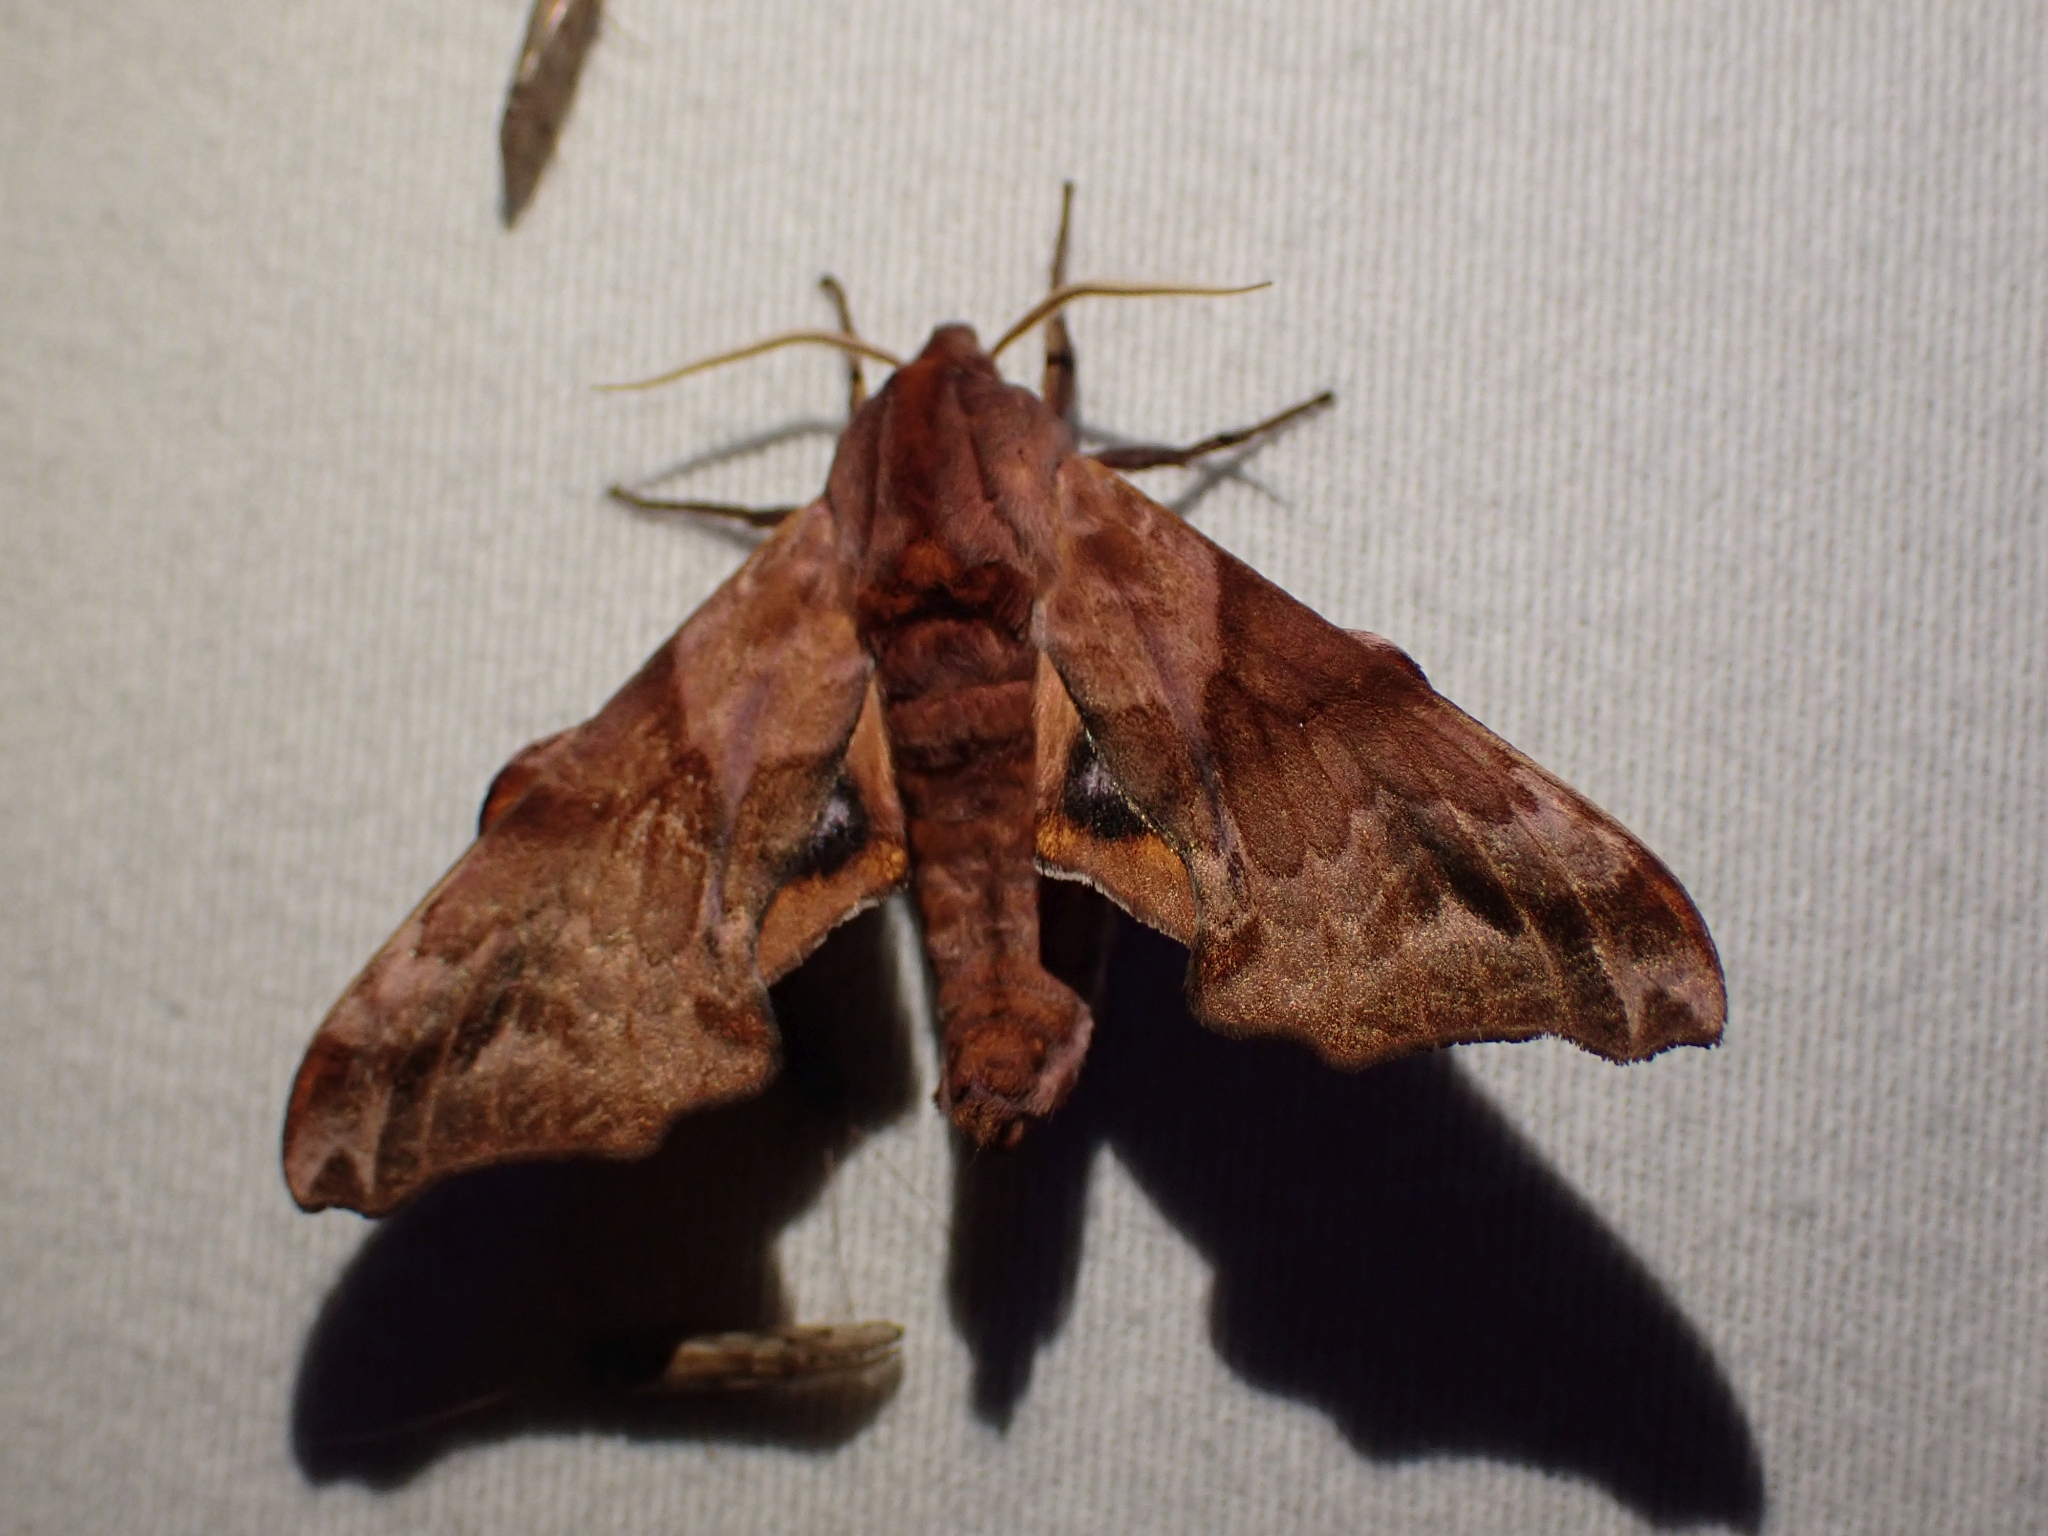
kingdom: Animalia
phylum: Arthropoda
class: Insecta
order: Lepidoptera
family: Sphingidae
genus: Paonias
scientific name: Paonias myops
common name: Small-eyed sphinx
